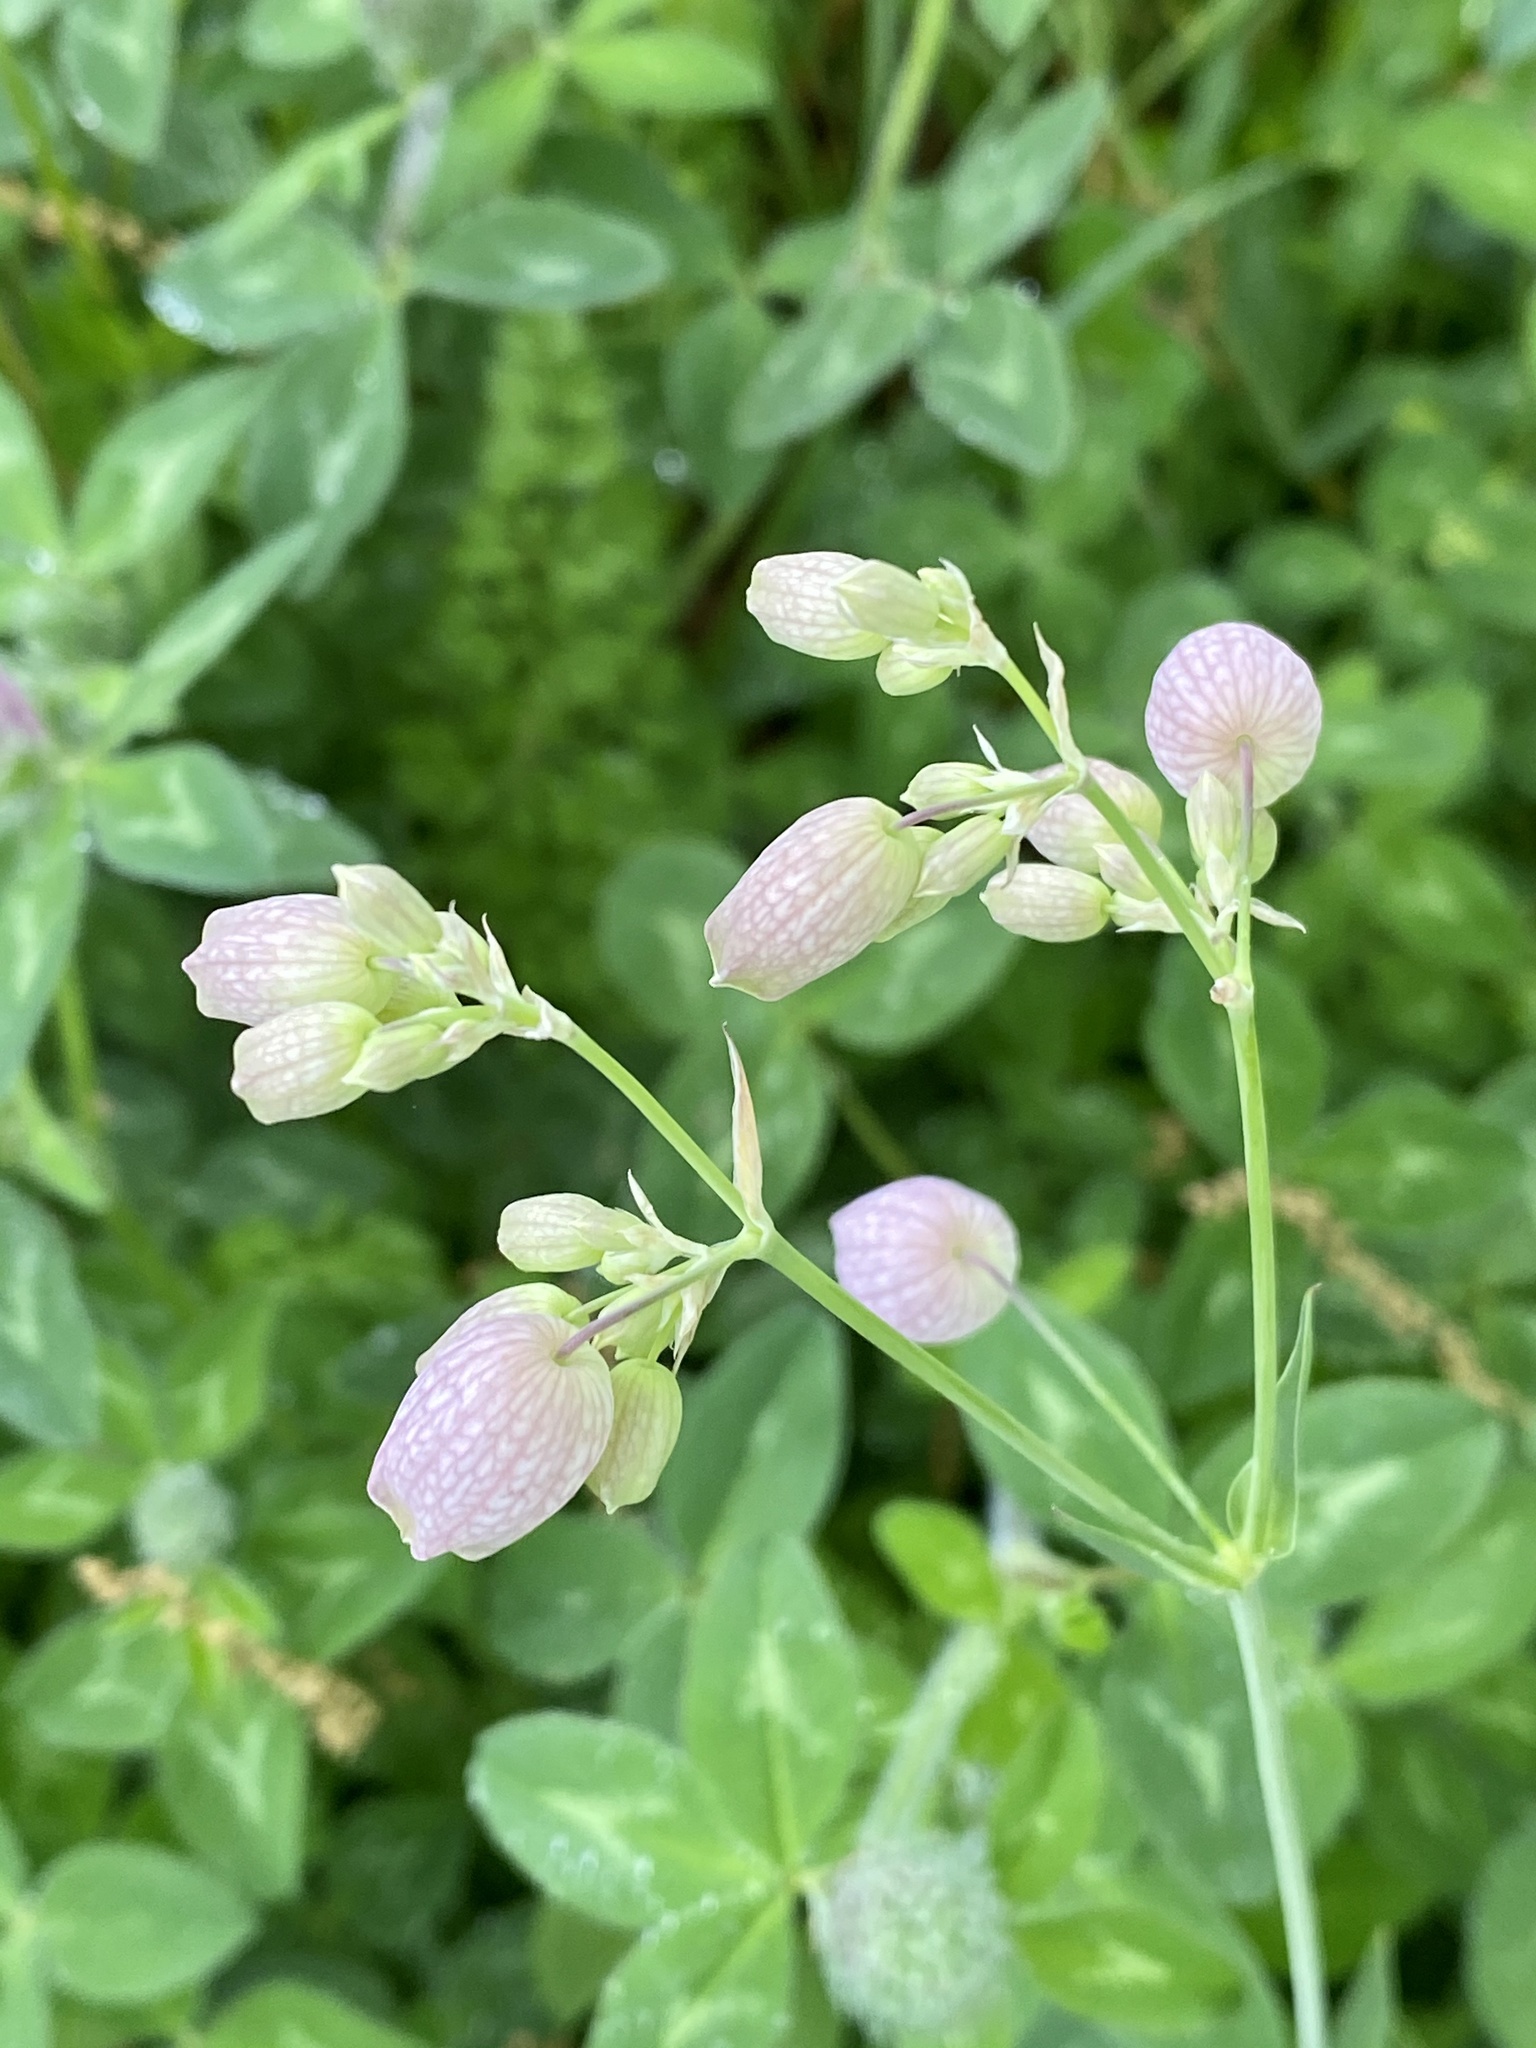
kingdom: Plantae
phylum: Tracheophyta
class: Magnoliopsida
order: Caryophyllales
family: Caryophyllaceae
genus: Silene
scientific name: Silene vulgaris
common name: Bladder campion
